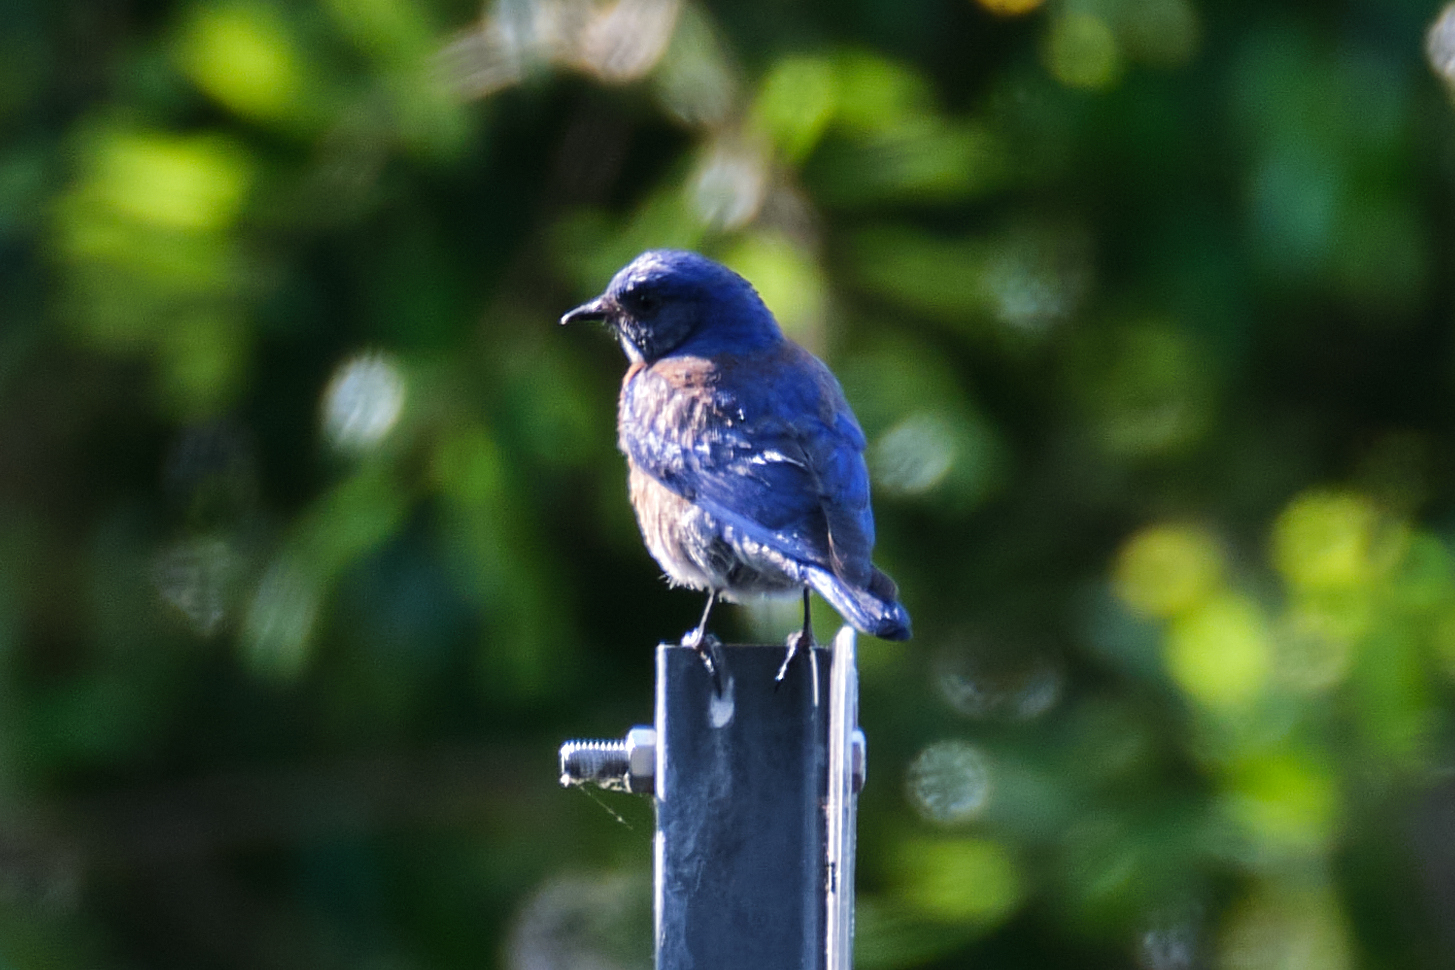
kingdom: Animalia
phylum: Chordata
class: Aves
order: Passeriformes
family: Turdidae
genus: Sialia
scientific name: Sialia mexicana
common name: Western bluebird
